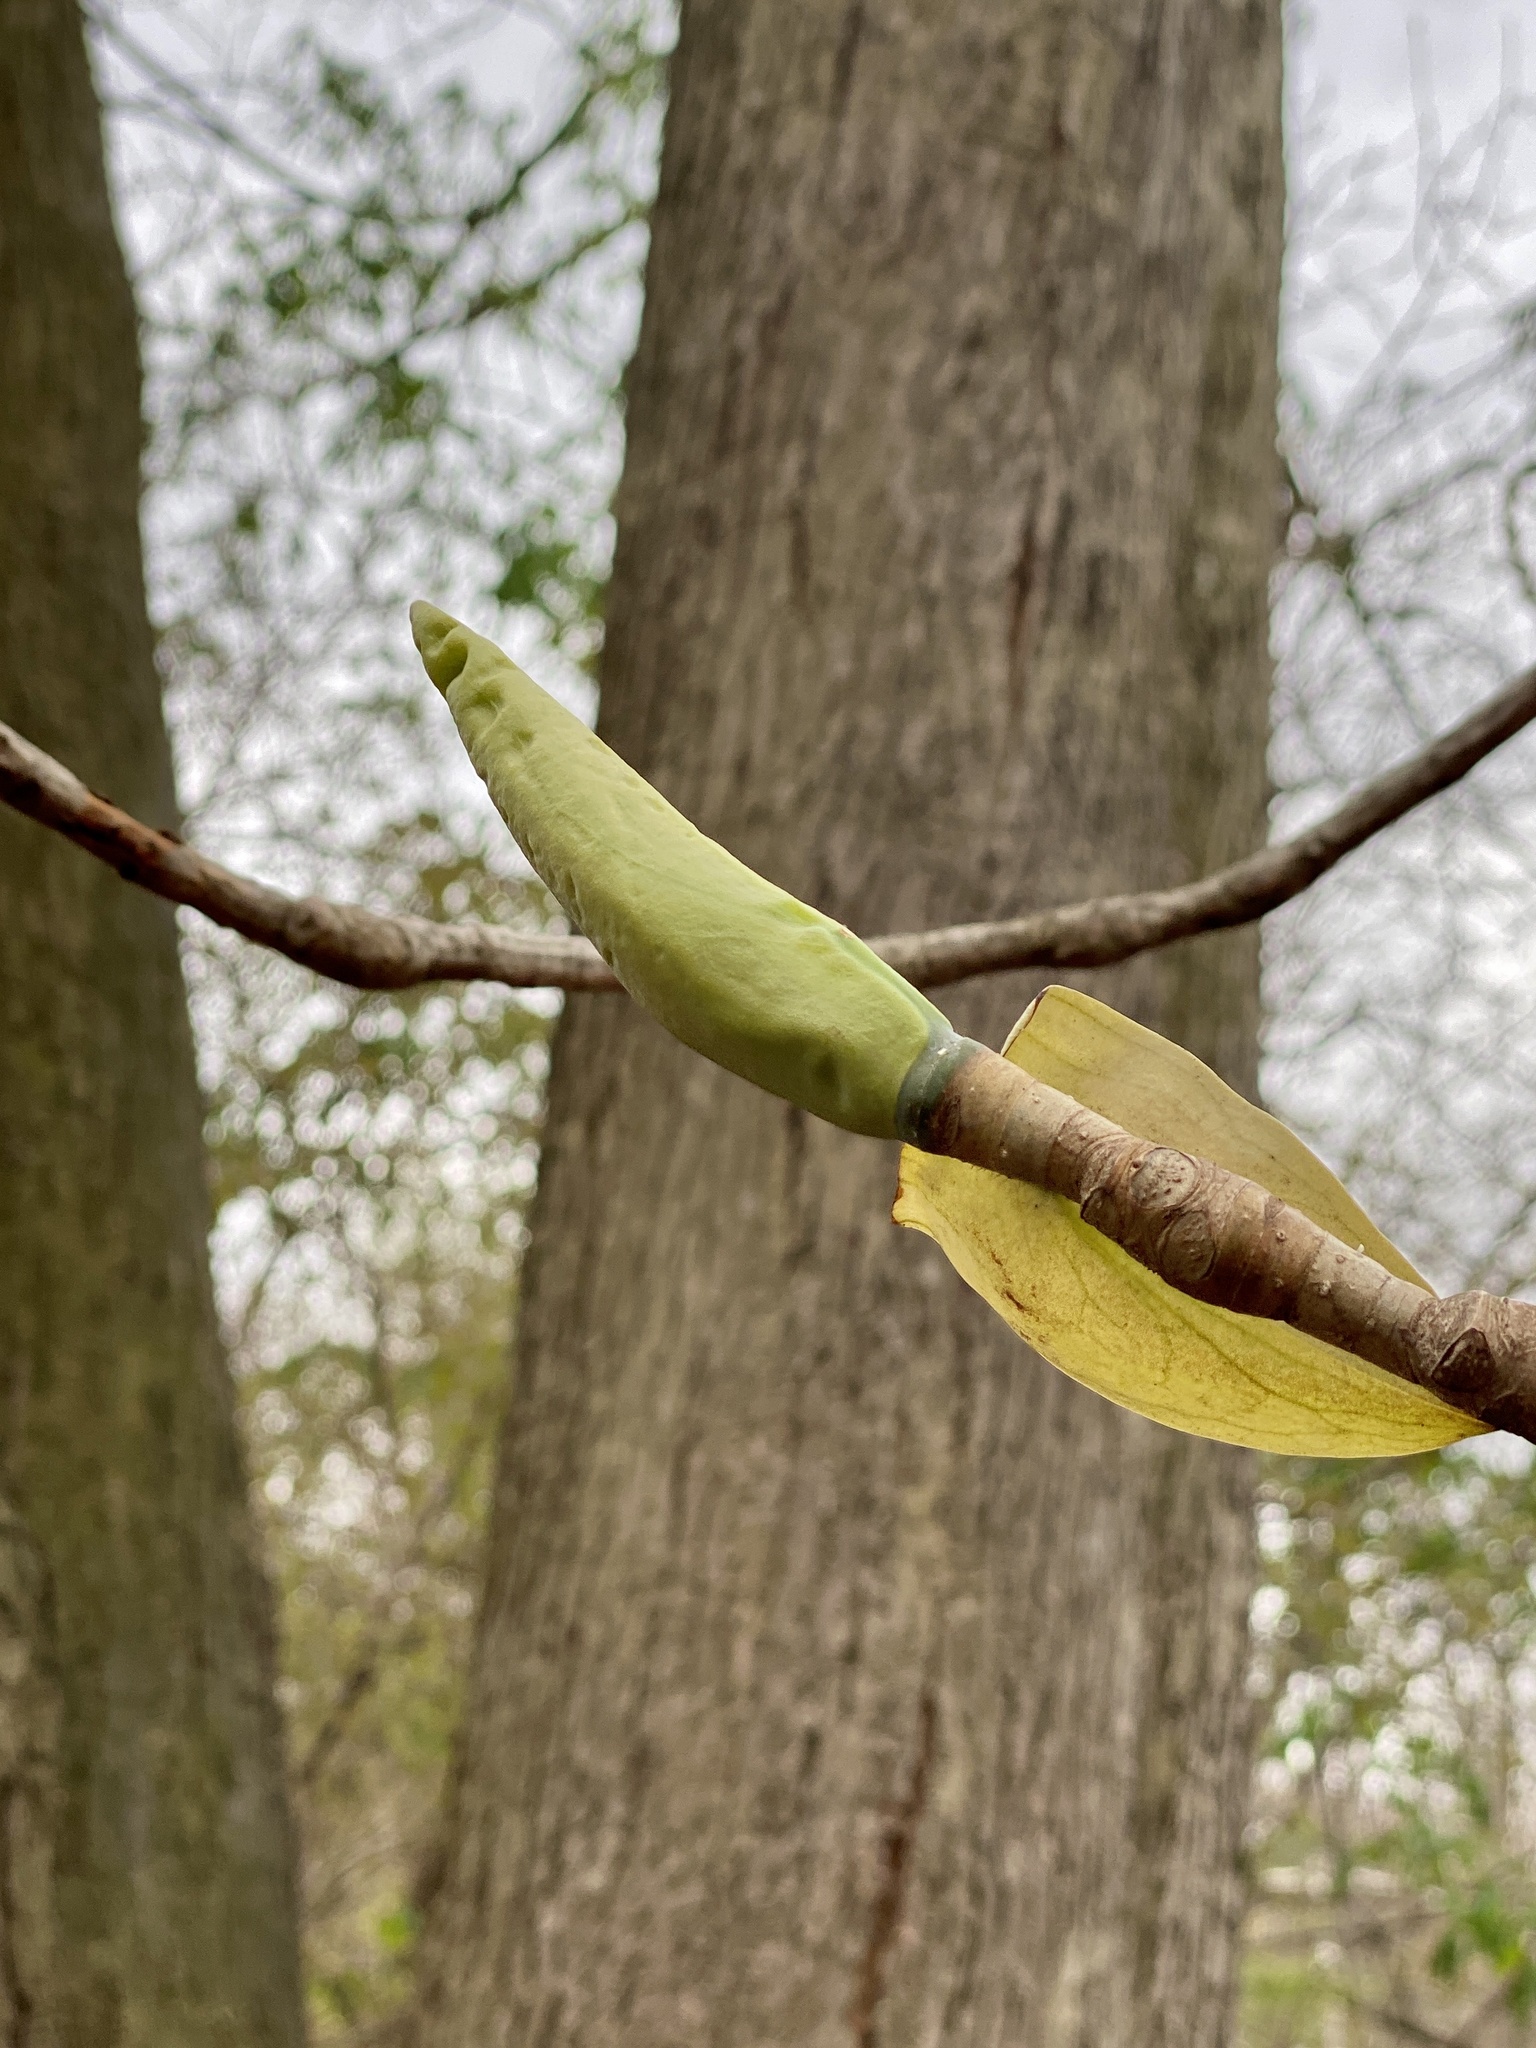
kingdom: Plantae
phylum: Tracheophyta
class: Magnoliopsida
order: Magnoliales
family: Magnoliaceae
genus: Magnolia
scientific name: Magnolia tripetala
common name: Umbrella magnolia
